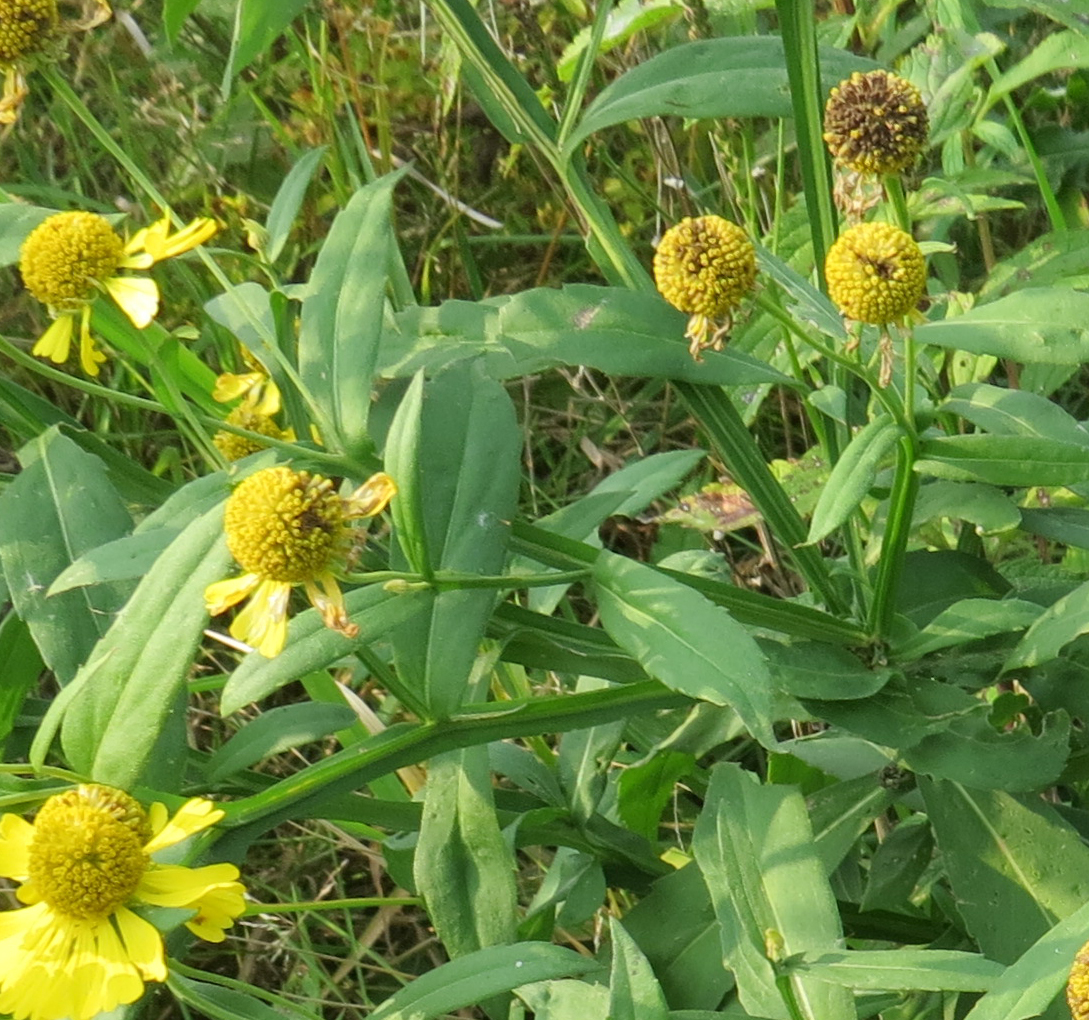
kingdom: Plantae
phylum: Tracheophyta
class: Magnoliopsida
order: Asterales
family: Asteraceae
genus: Helenium
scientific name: Helenium autumnale
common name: Sneezeweed
